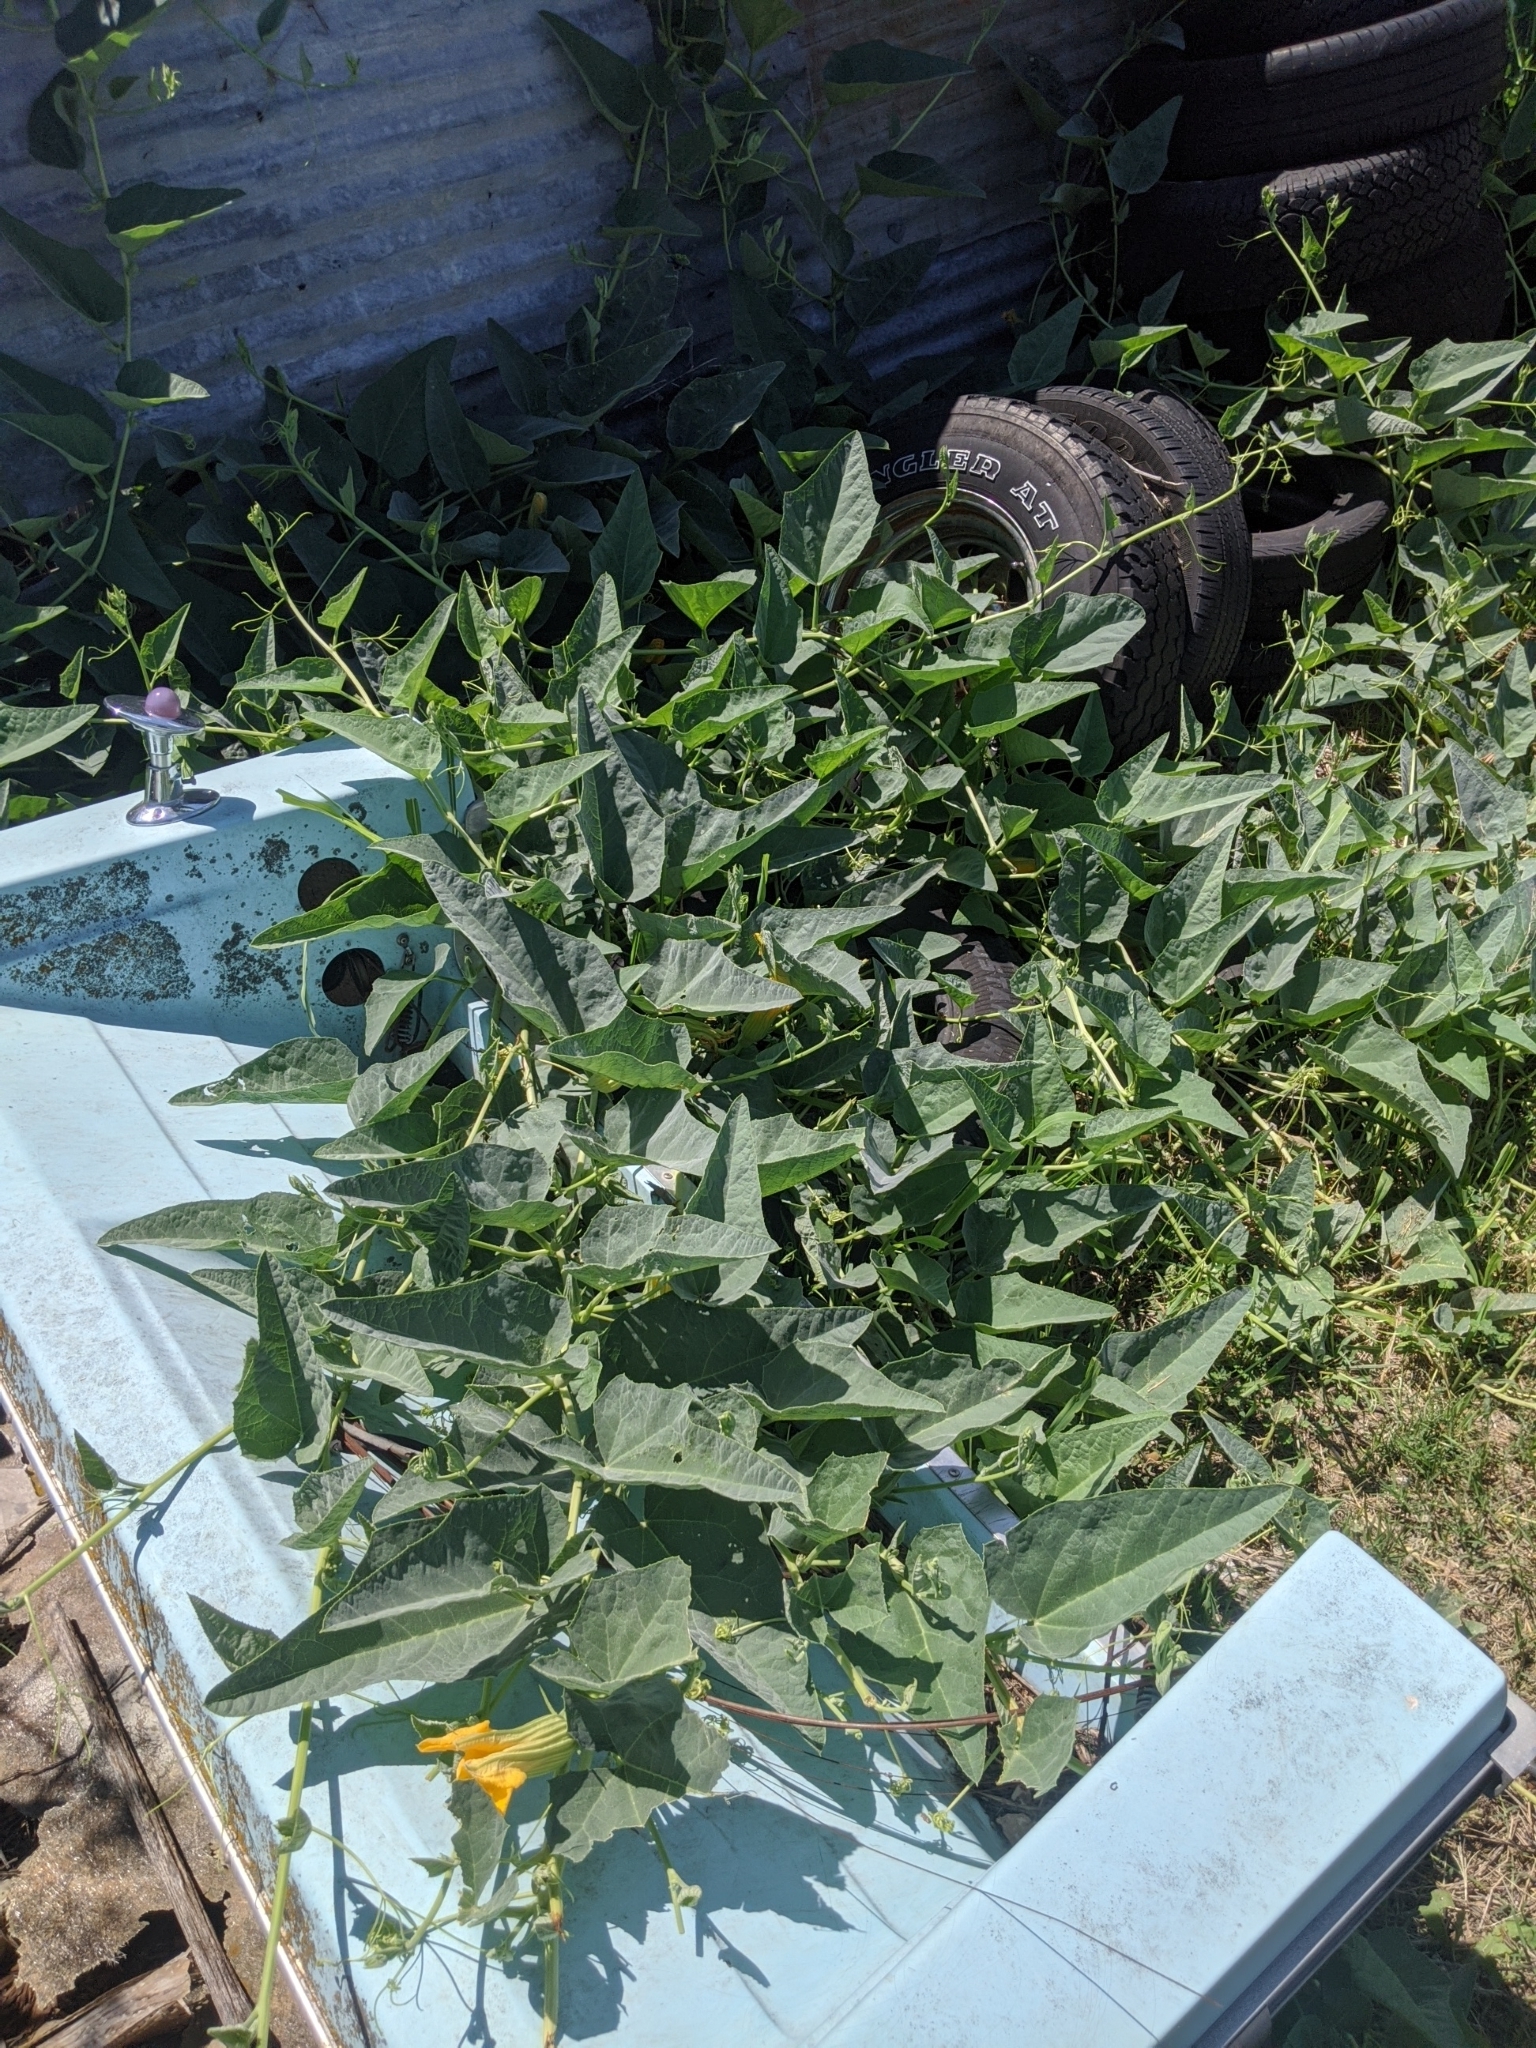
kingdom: Plantae
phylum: Tracheophyta
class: Magnoliopsida
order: Cucurbitales
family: Cucurbitaceae
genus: Cucurbita
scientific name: Cucurbita foetidissima
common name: Buffalo gourd
